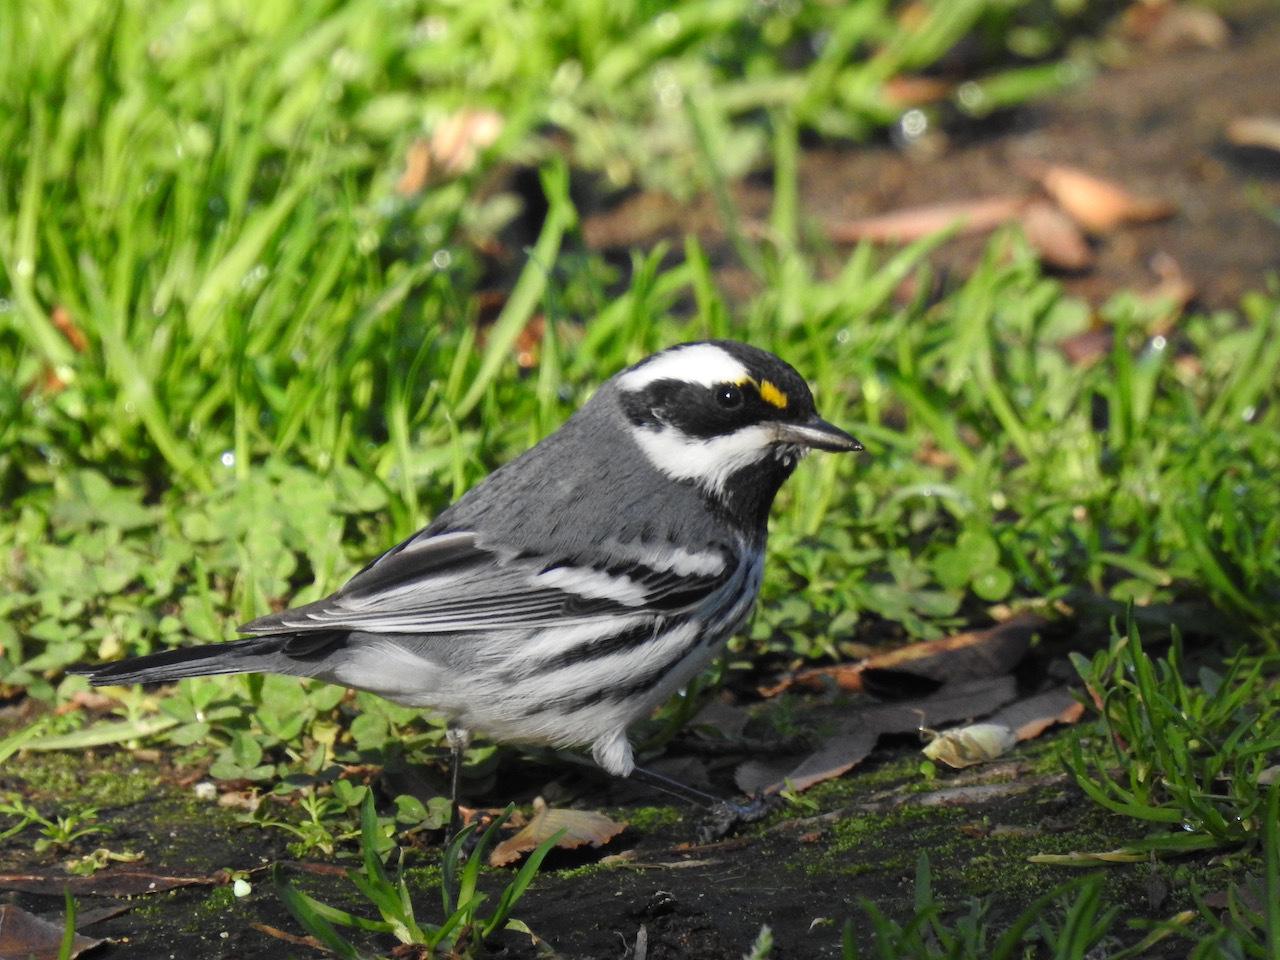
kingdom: Animalia
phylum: Chordata
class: Aves
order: Passeriformes
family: Parulidae
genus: Setophaga
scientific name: Setophaga nigrescens
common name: Black-throated gray warbler
